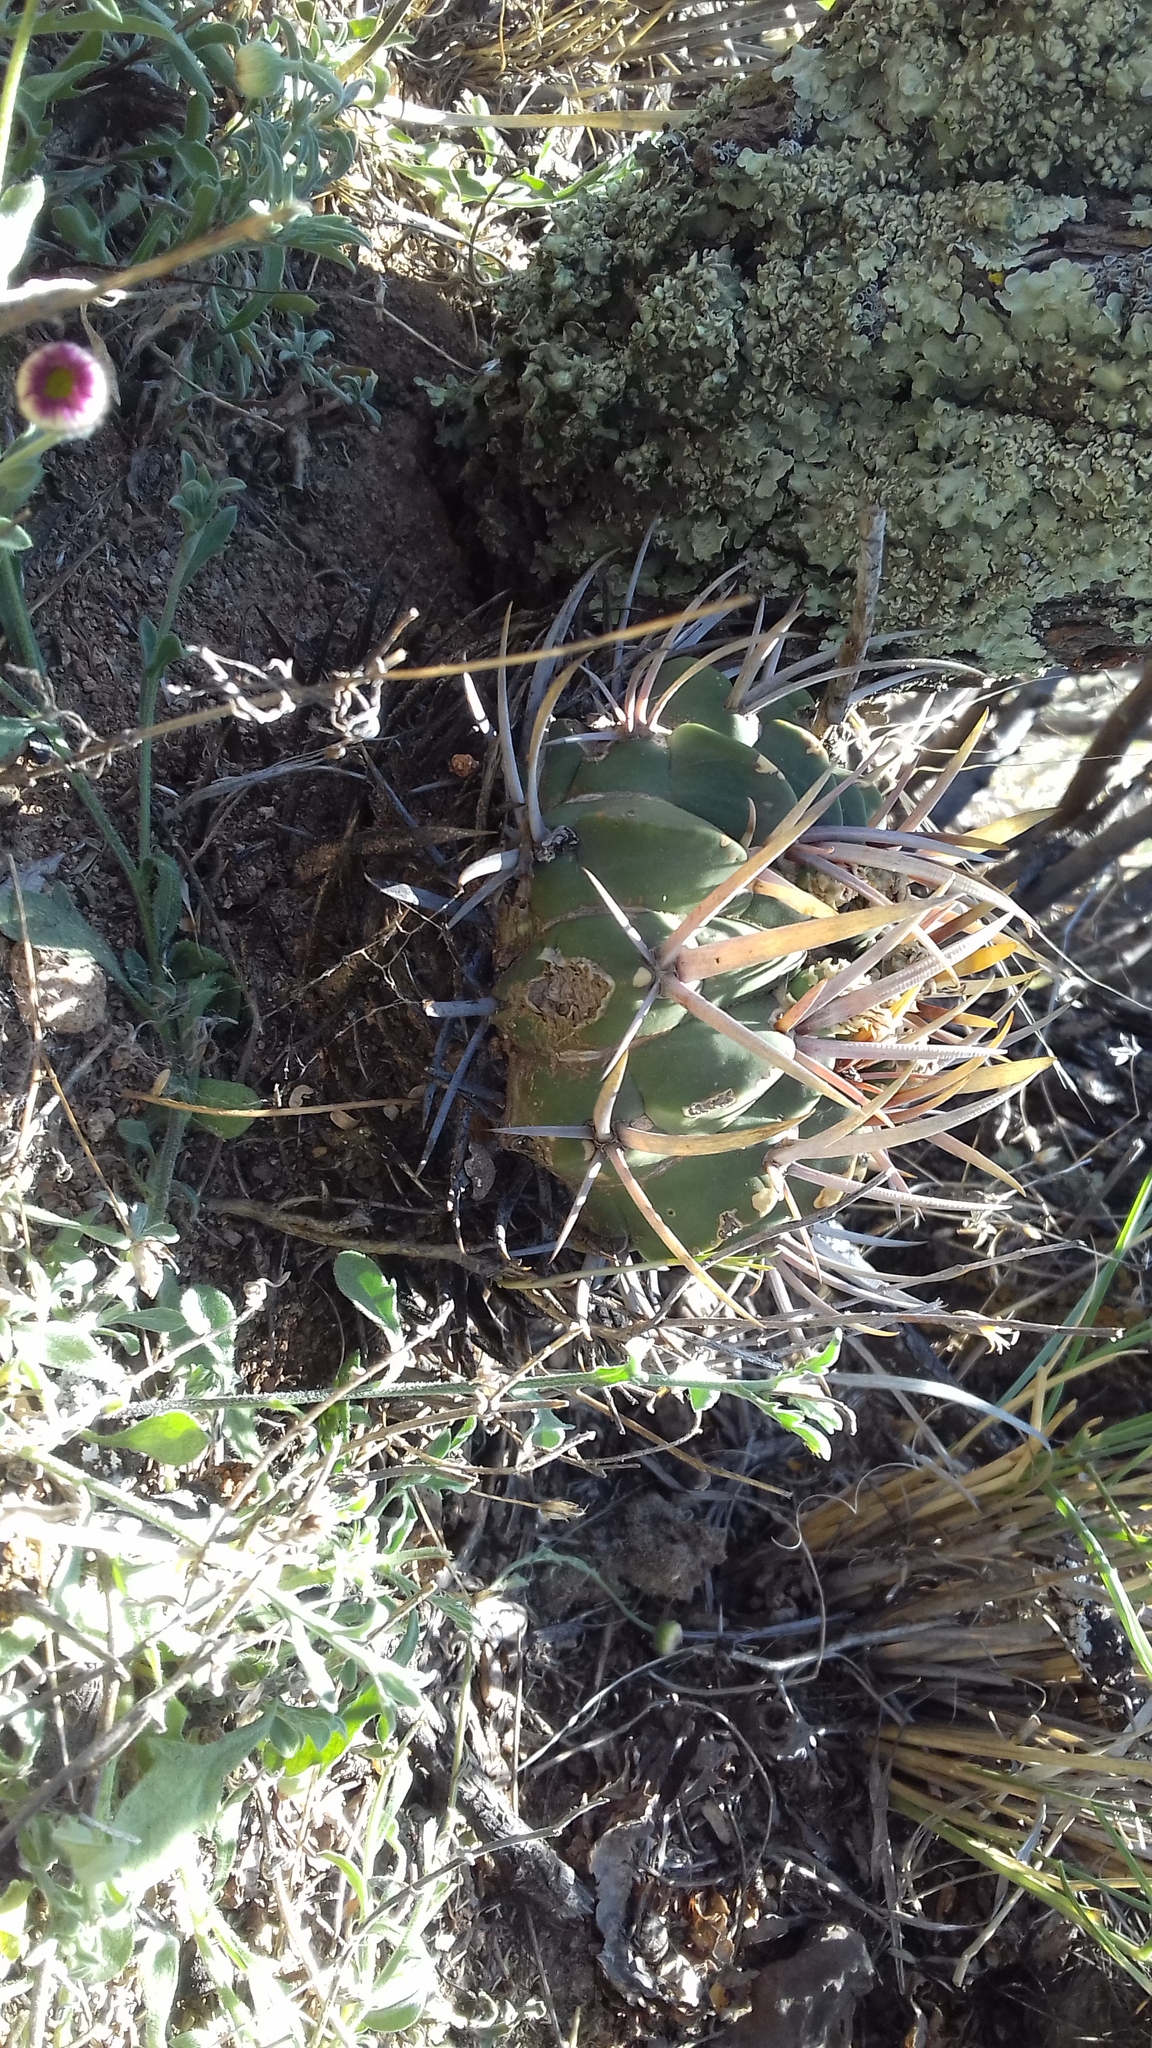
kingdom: Plantae
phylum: Tracheophyta
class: Magnoliopsida
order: Caryophyllales
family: Cactaceae
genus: Stenocactus
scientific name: Stenocactus coptonogonus
